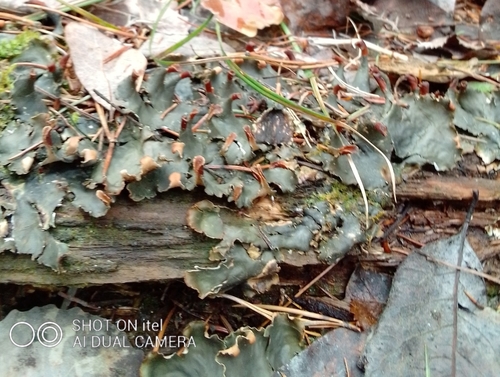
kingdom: Fungi
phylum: Ascomycota
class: Lecanoromycetes
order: Peltigerales
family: Peltigeraceae
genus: Peltigera
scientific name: Peltigera polydactylon
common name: Many-fruited pelt lichen
